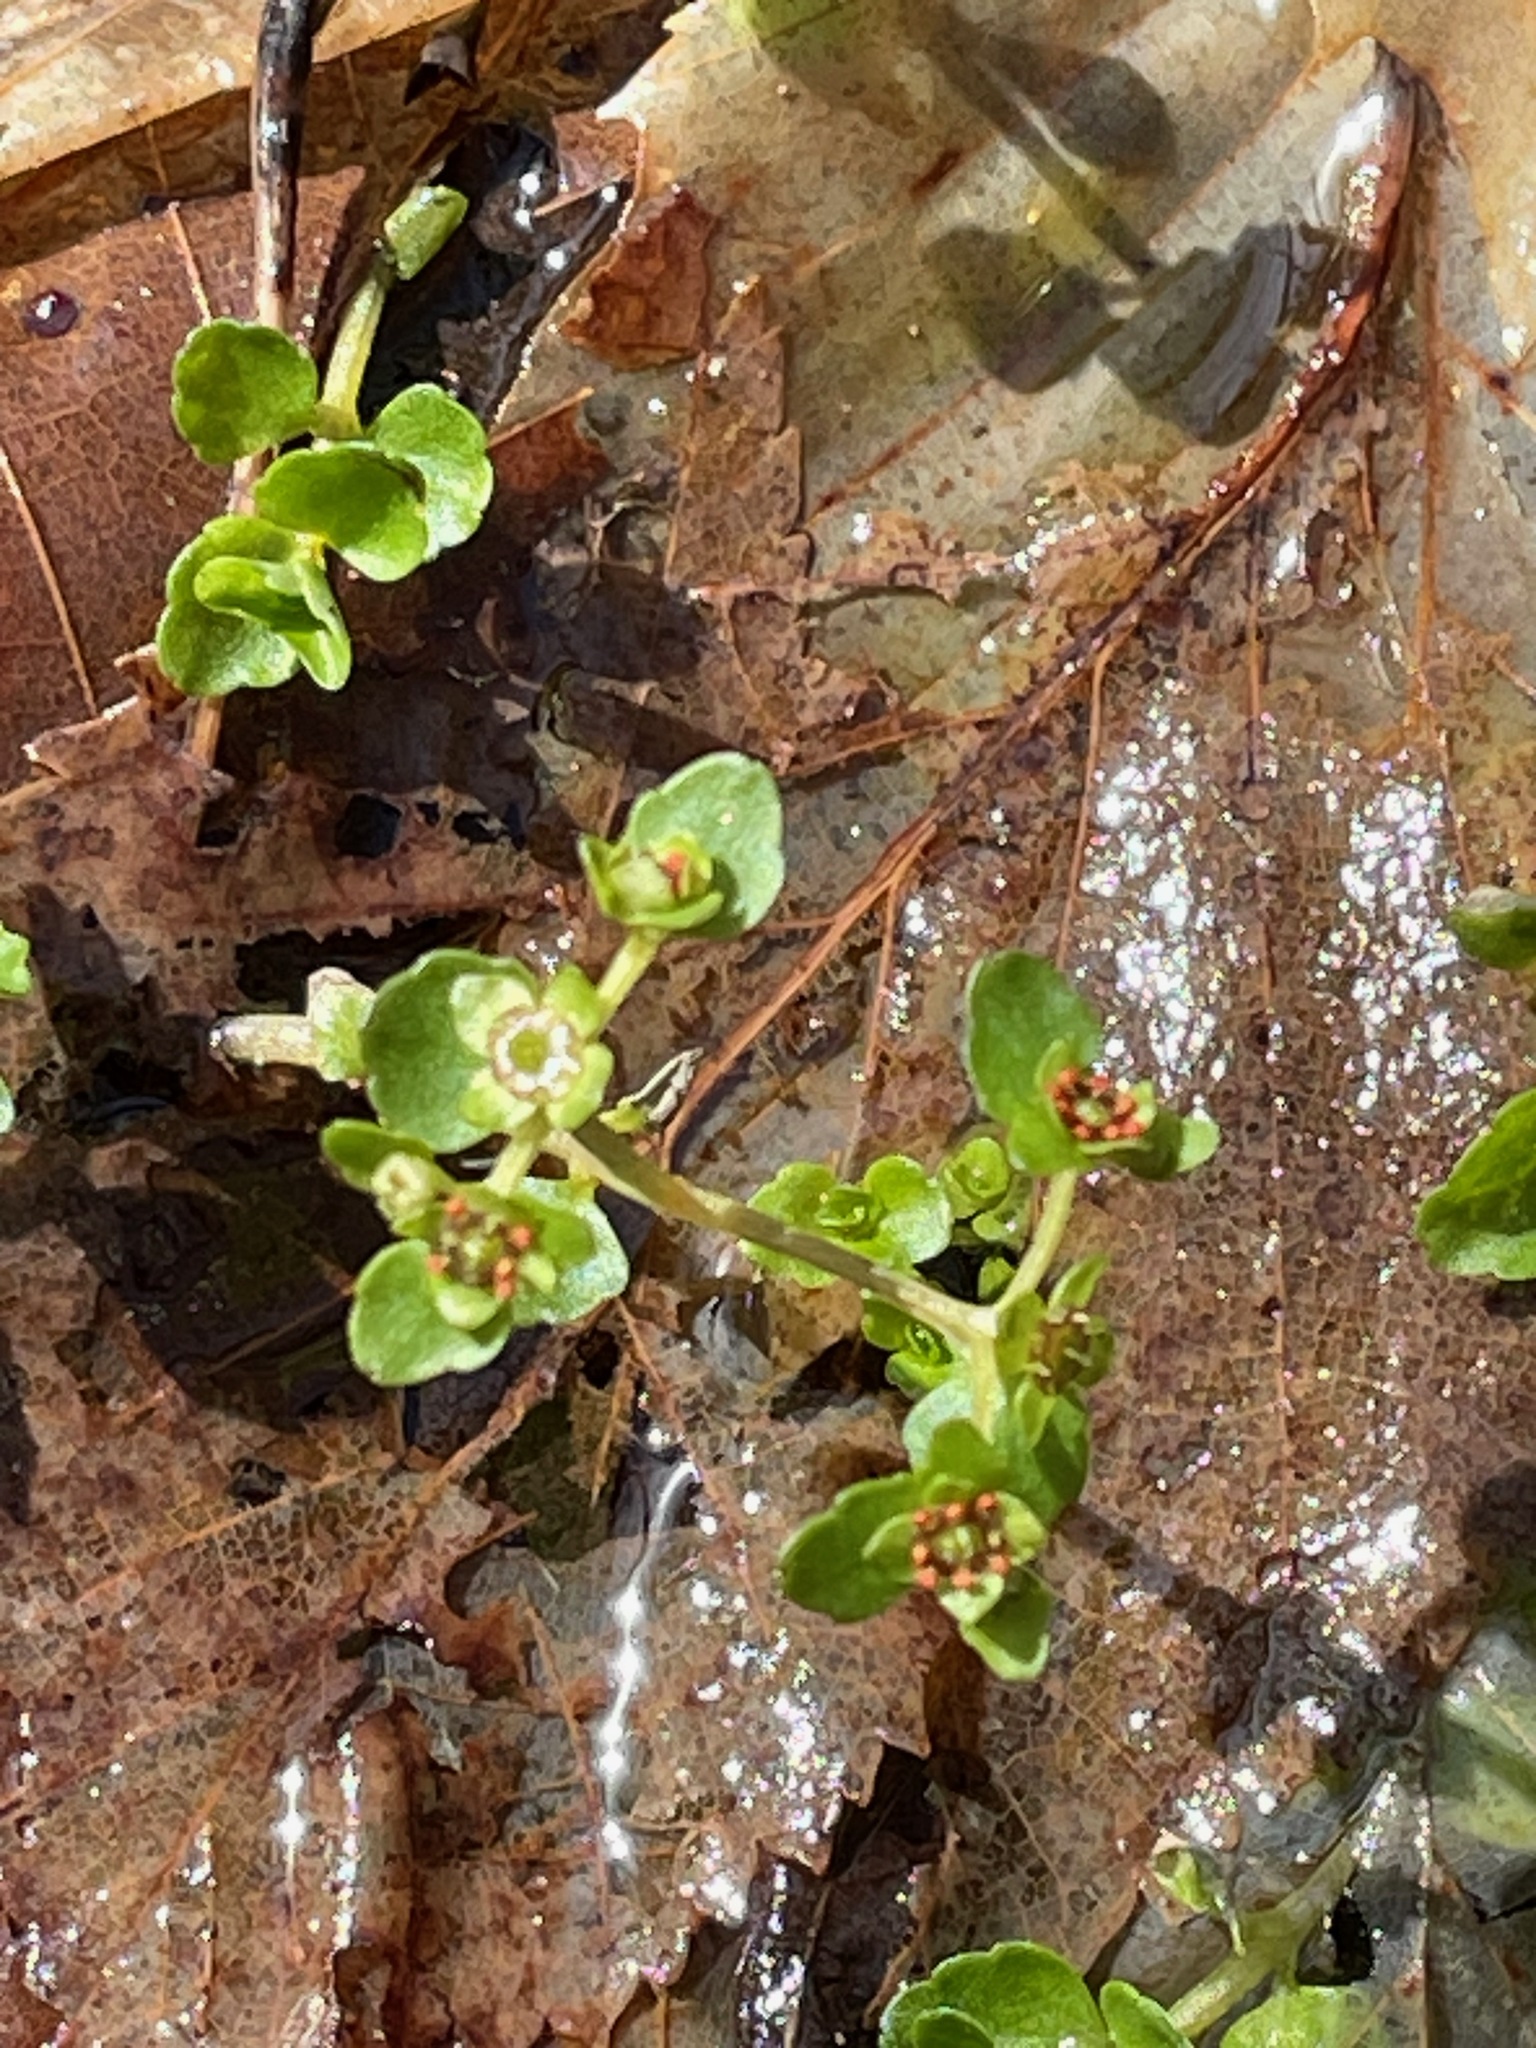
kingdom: Plantae
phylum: Tracheophyta
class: Magnoliopsida
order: Saxifragales
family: Saxifragaceae
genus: Chrysosplenium
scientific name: Chrysosplenium americanum
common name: American golden-saxifrage
